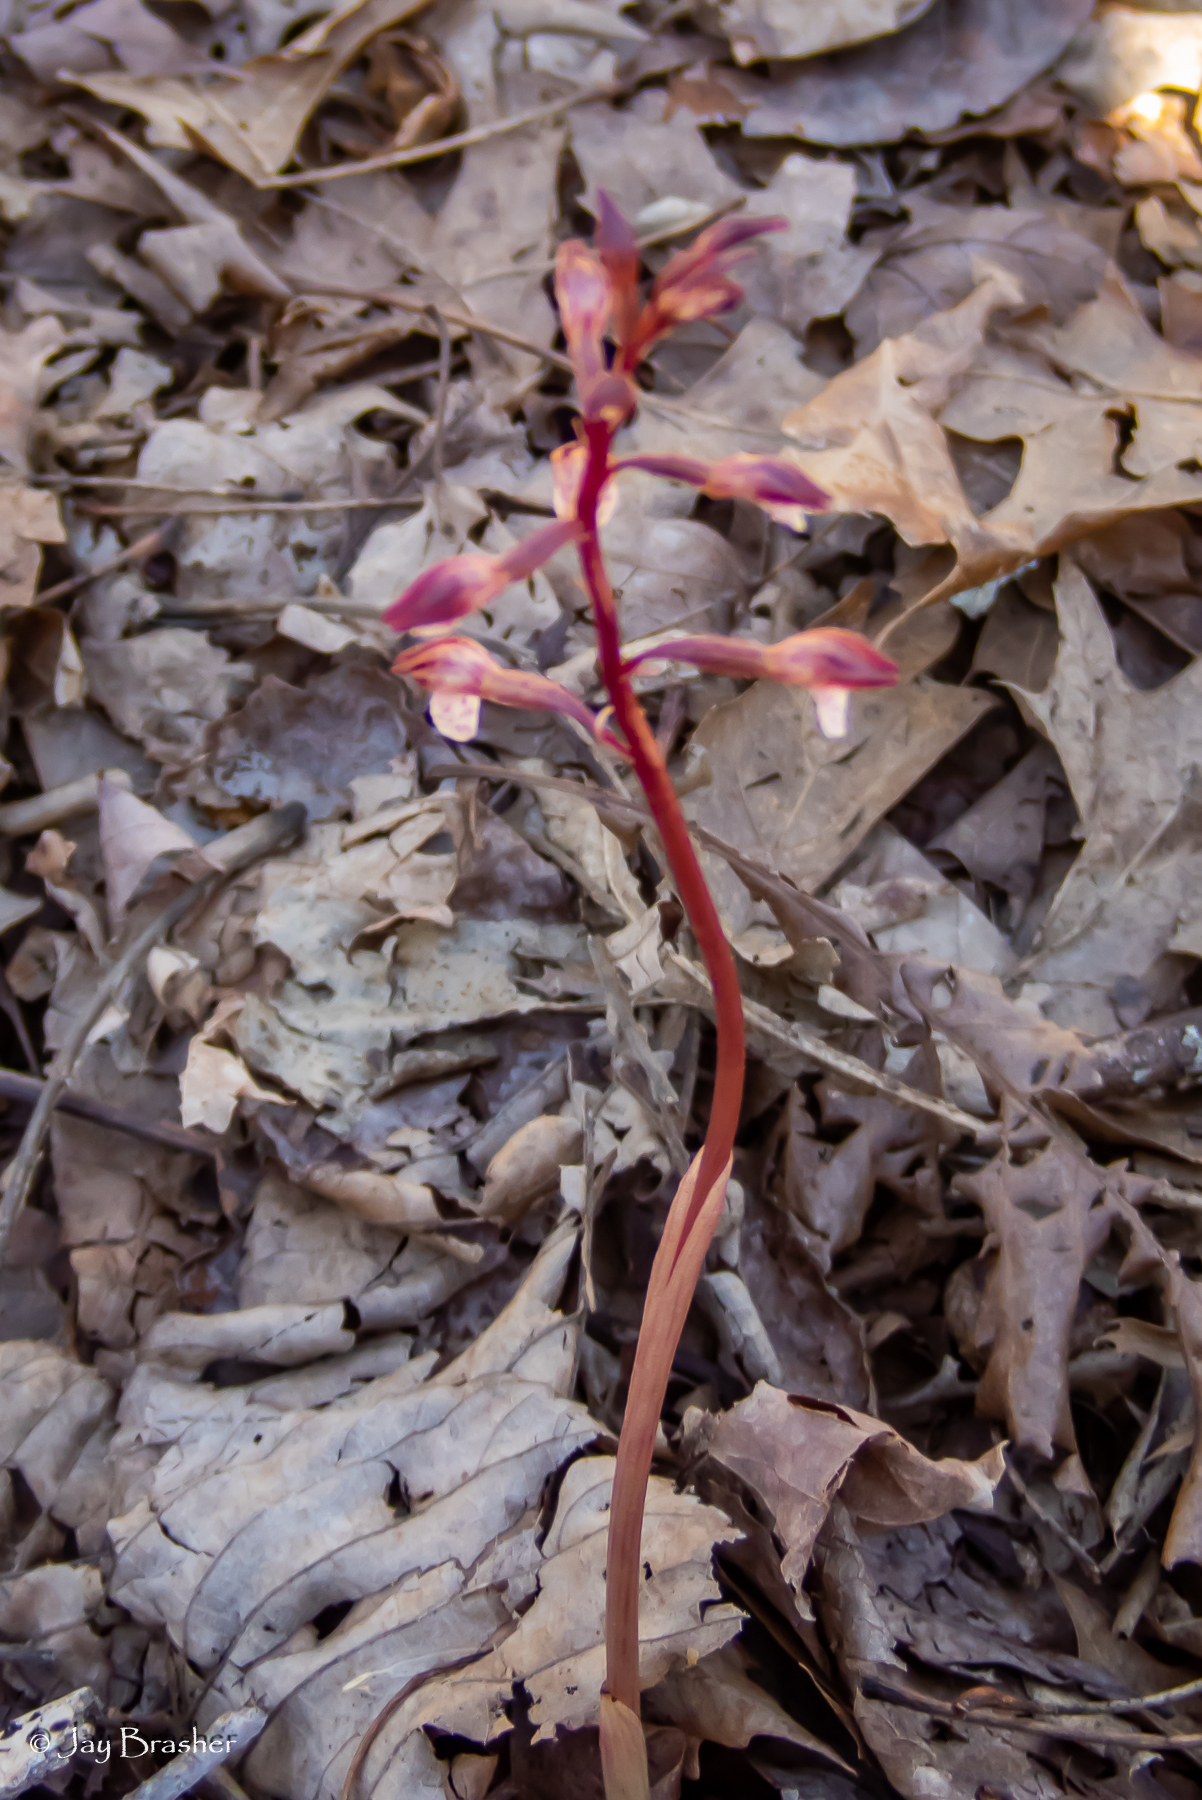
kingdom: Plantae
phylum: Tracheophyta
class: Liliopsida
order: Asparagales
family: Orchidaceae
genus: Corallorhiza
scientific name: Corallorhiza wisteriana
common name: Spring coralroot
